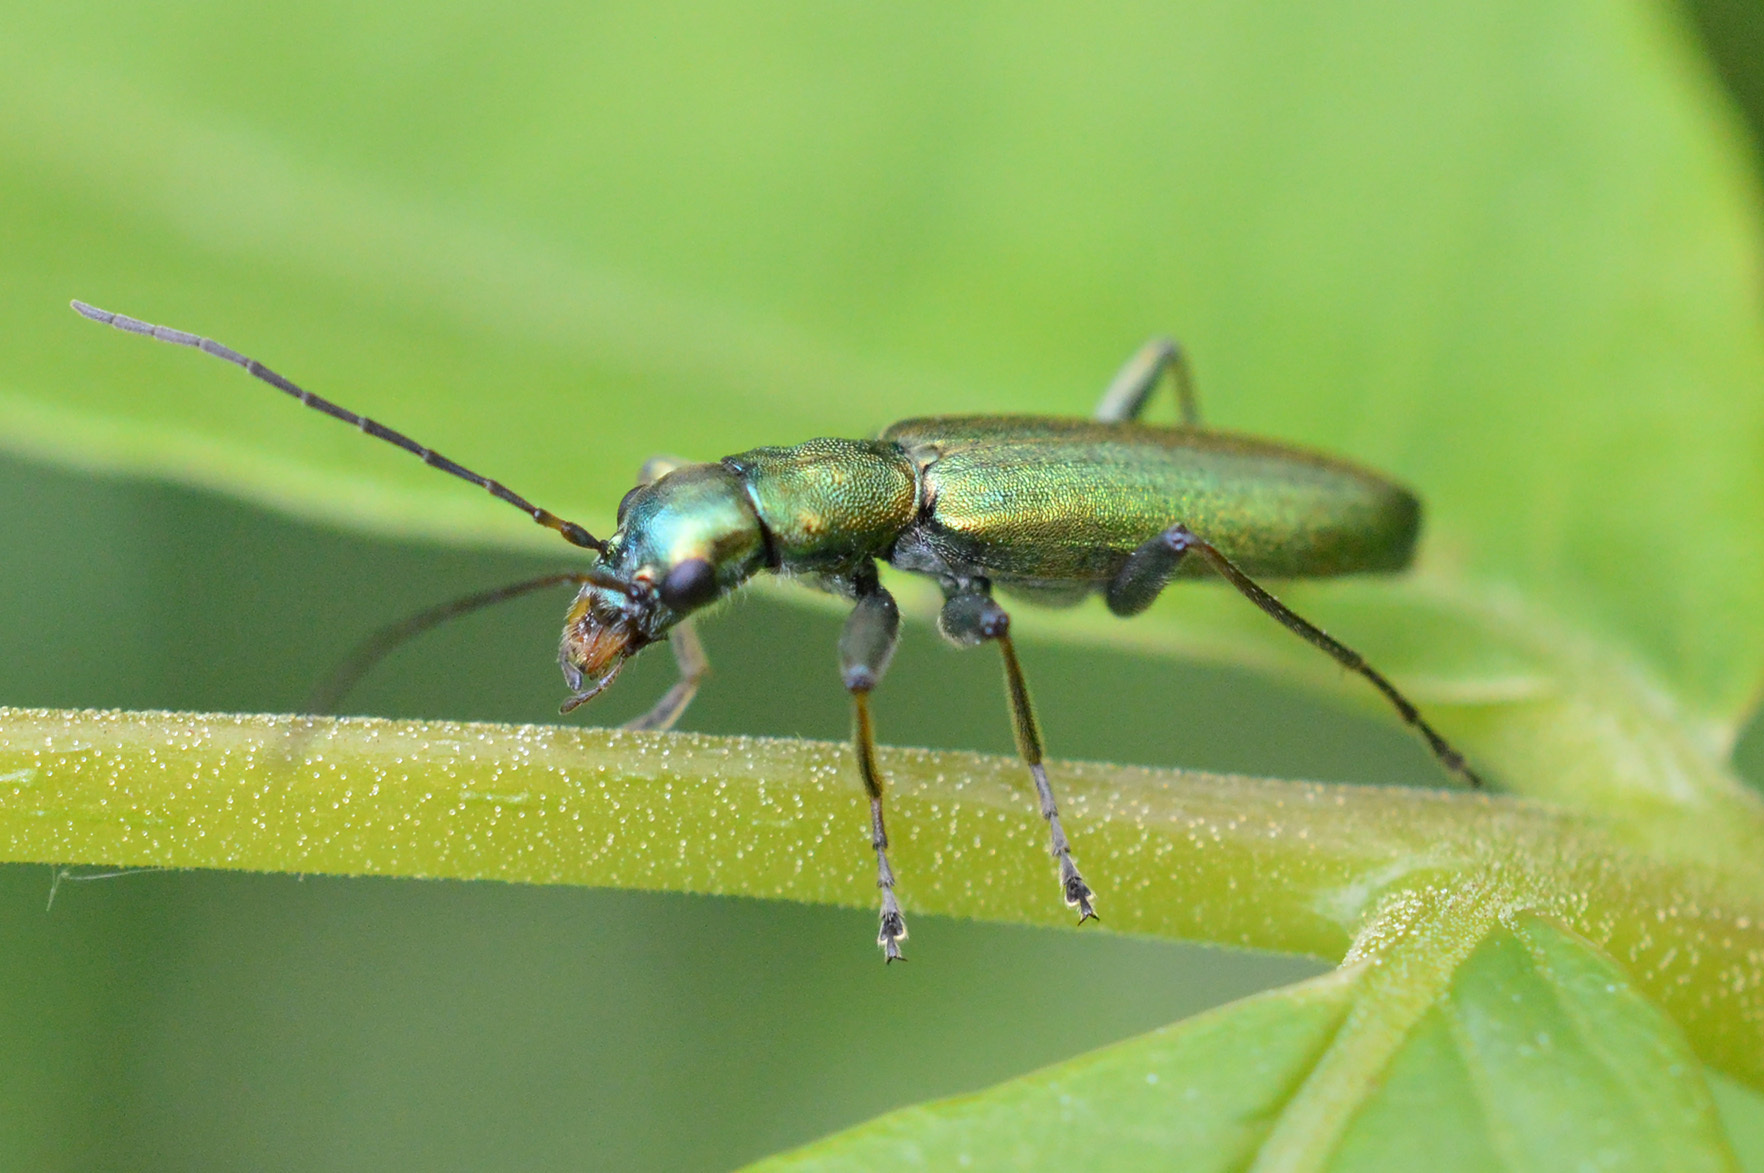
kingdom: Animalia
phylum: Arthropoda
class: Insecta
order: Coleoptera
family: Oedemeridae
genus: Chrysanthia
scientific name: Chrysanthia viridissima
